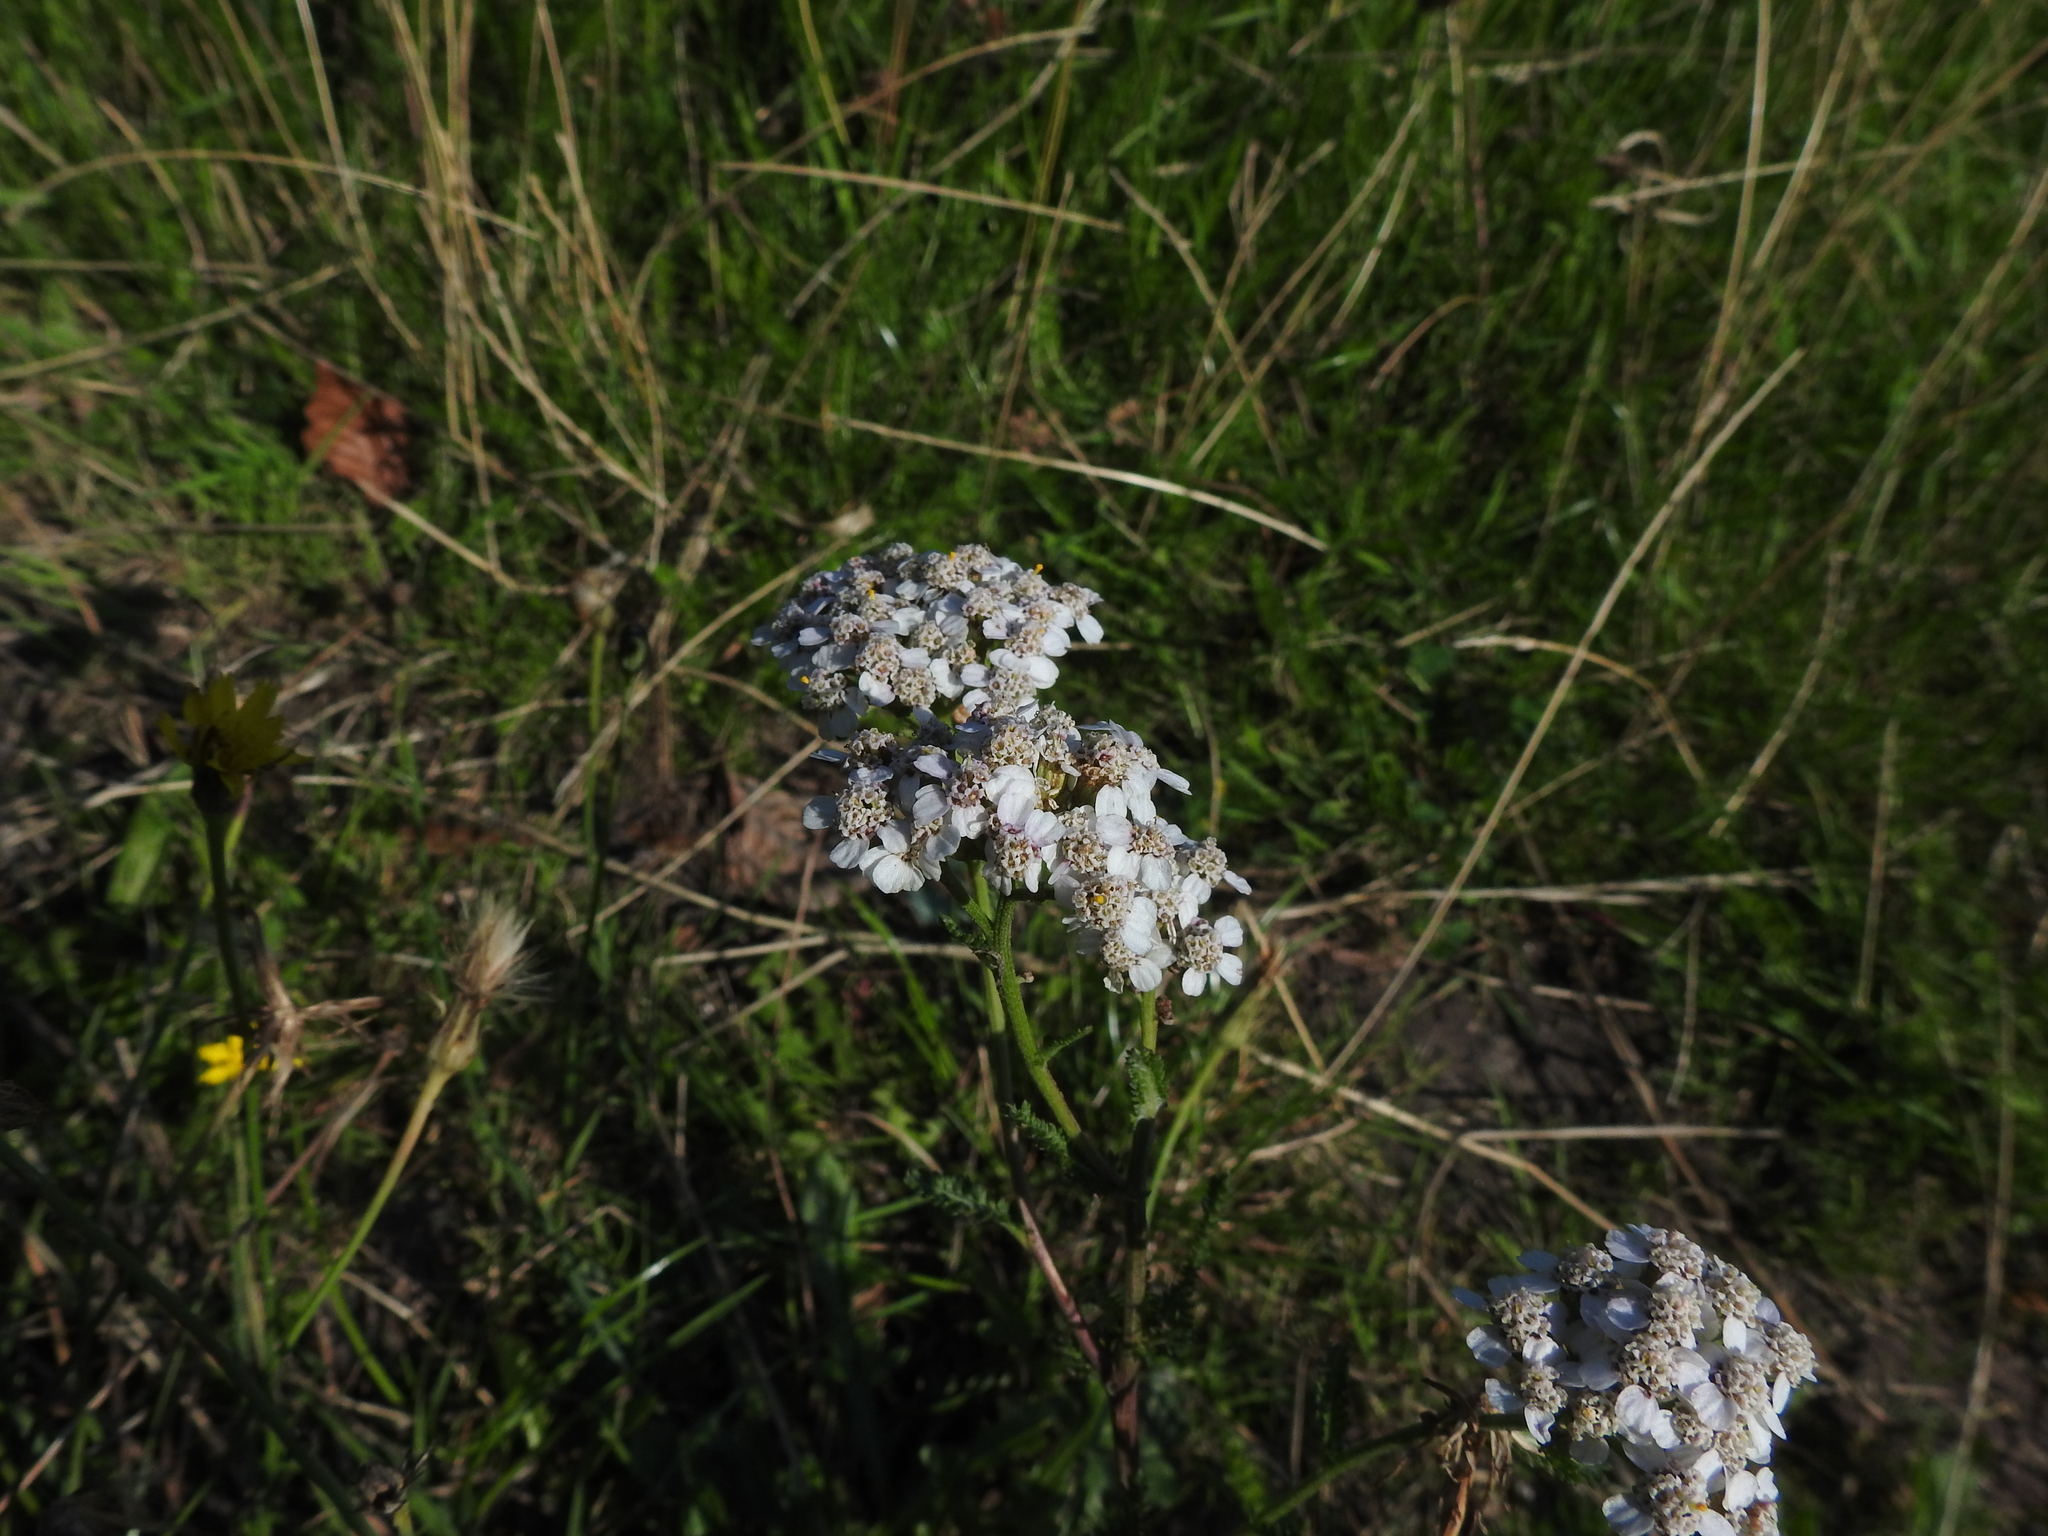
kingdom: Plantae
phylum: Tracheophyta
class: Magnoliopsida
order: Asterales
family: Asteraceae
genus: Achillea
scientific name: Achillea millefolium
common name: Yarrow
